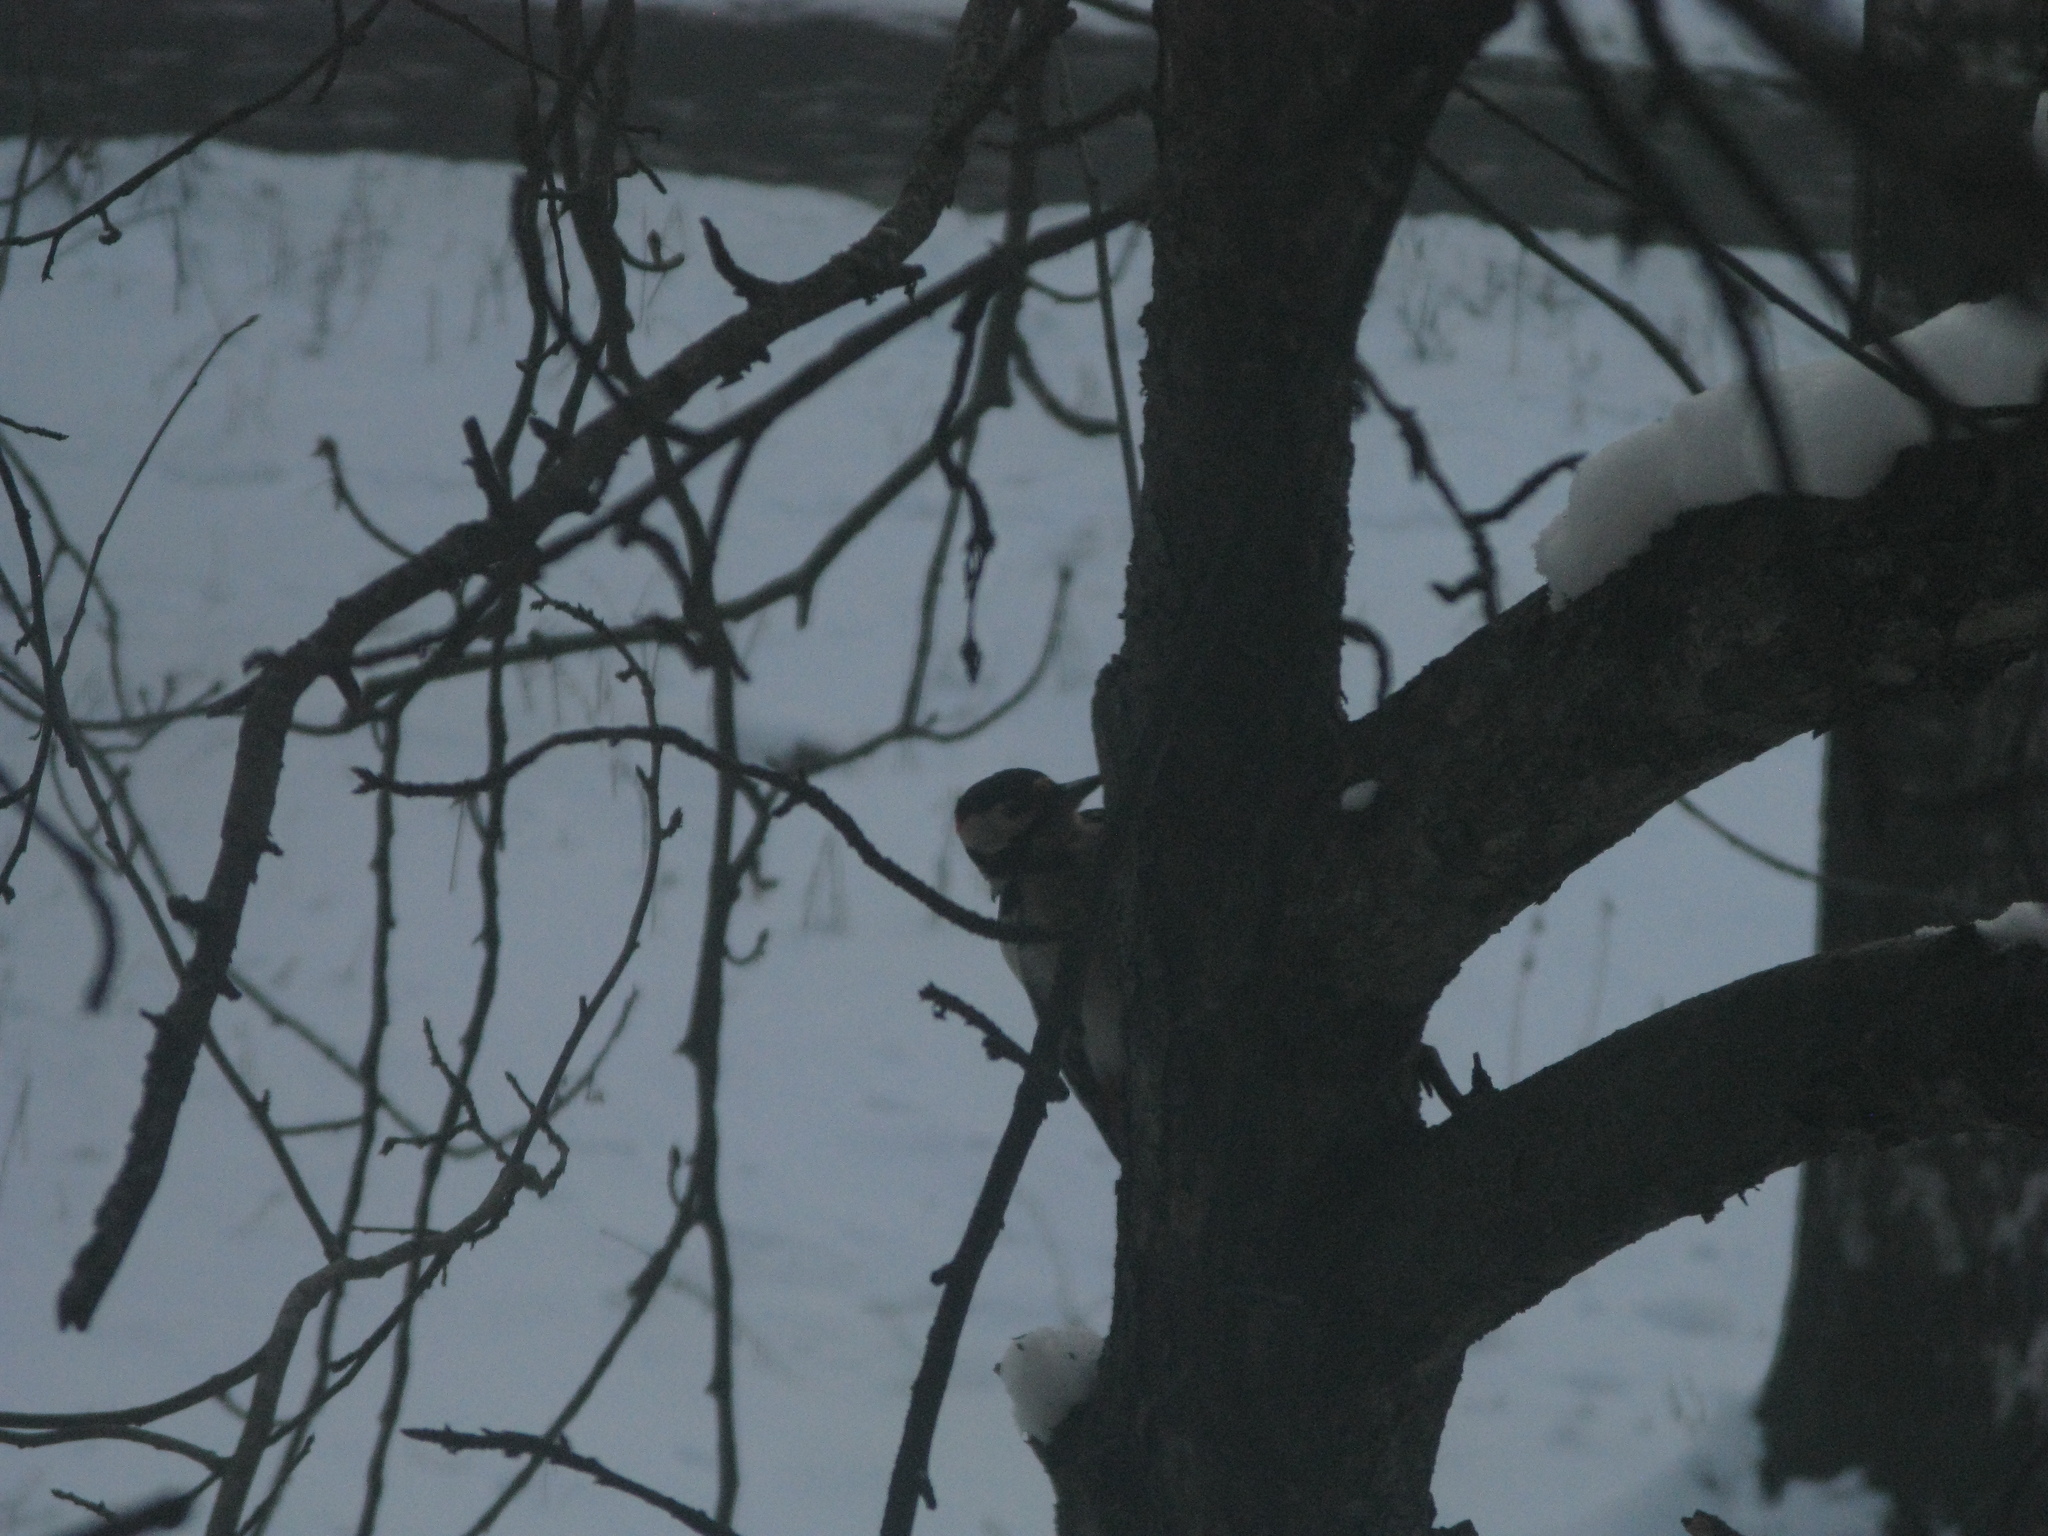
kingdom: Animalia
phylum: Chordata
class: Aves
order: Piciformes
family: Picidae
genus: Dendrocopos
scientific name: Dendrocopos major
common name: Great spotted woodpecker
